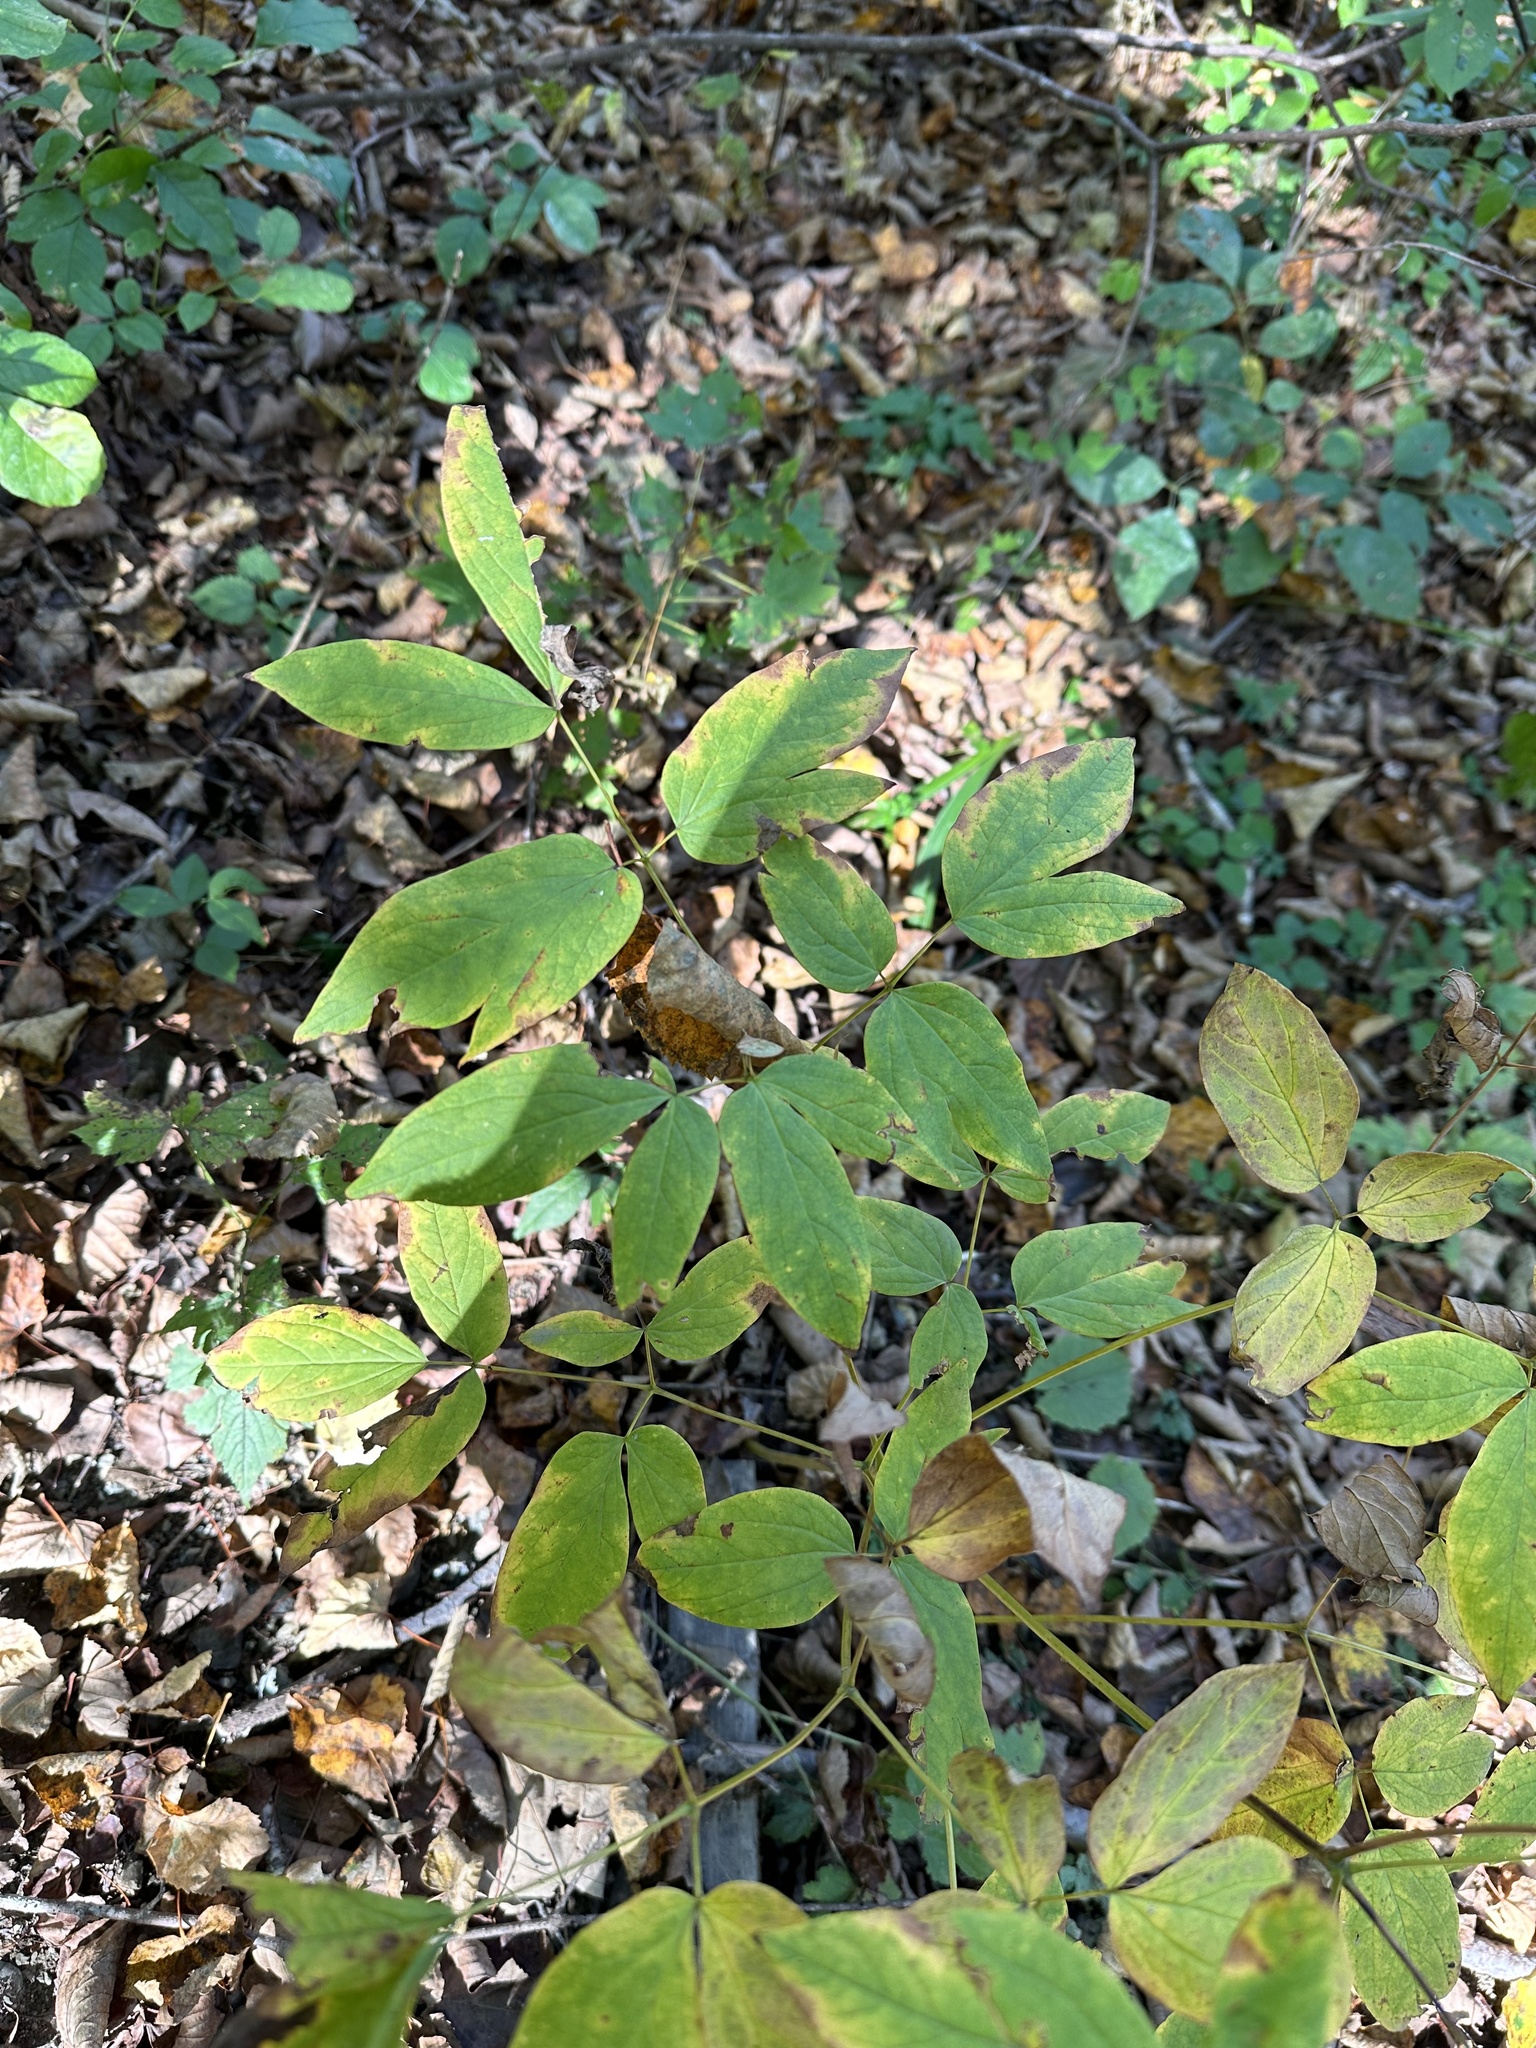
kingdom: Plantae
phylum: Tracheophyta
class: Magnoliopsida
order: Ranunculales
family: Berberidaceae
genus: Caulophyllum
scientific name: Caulophyllum robustum
